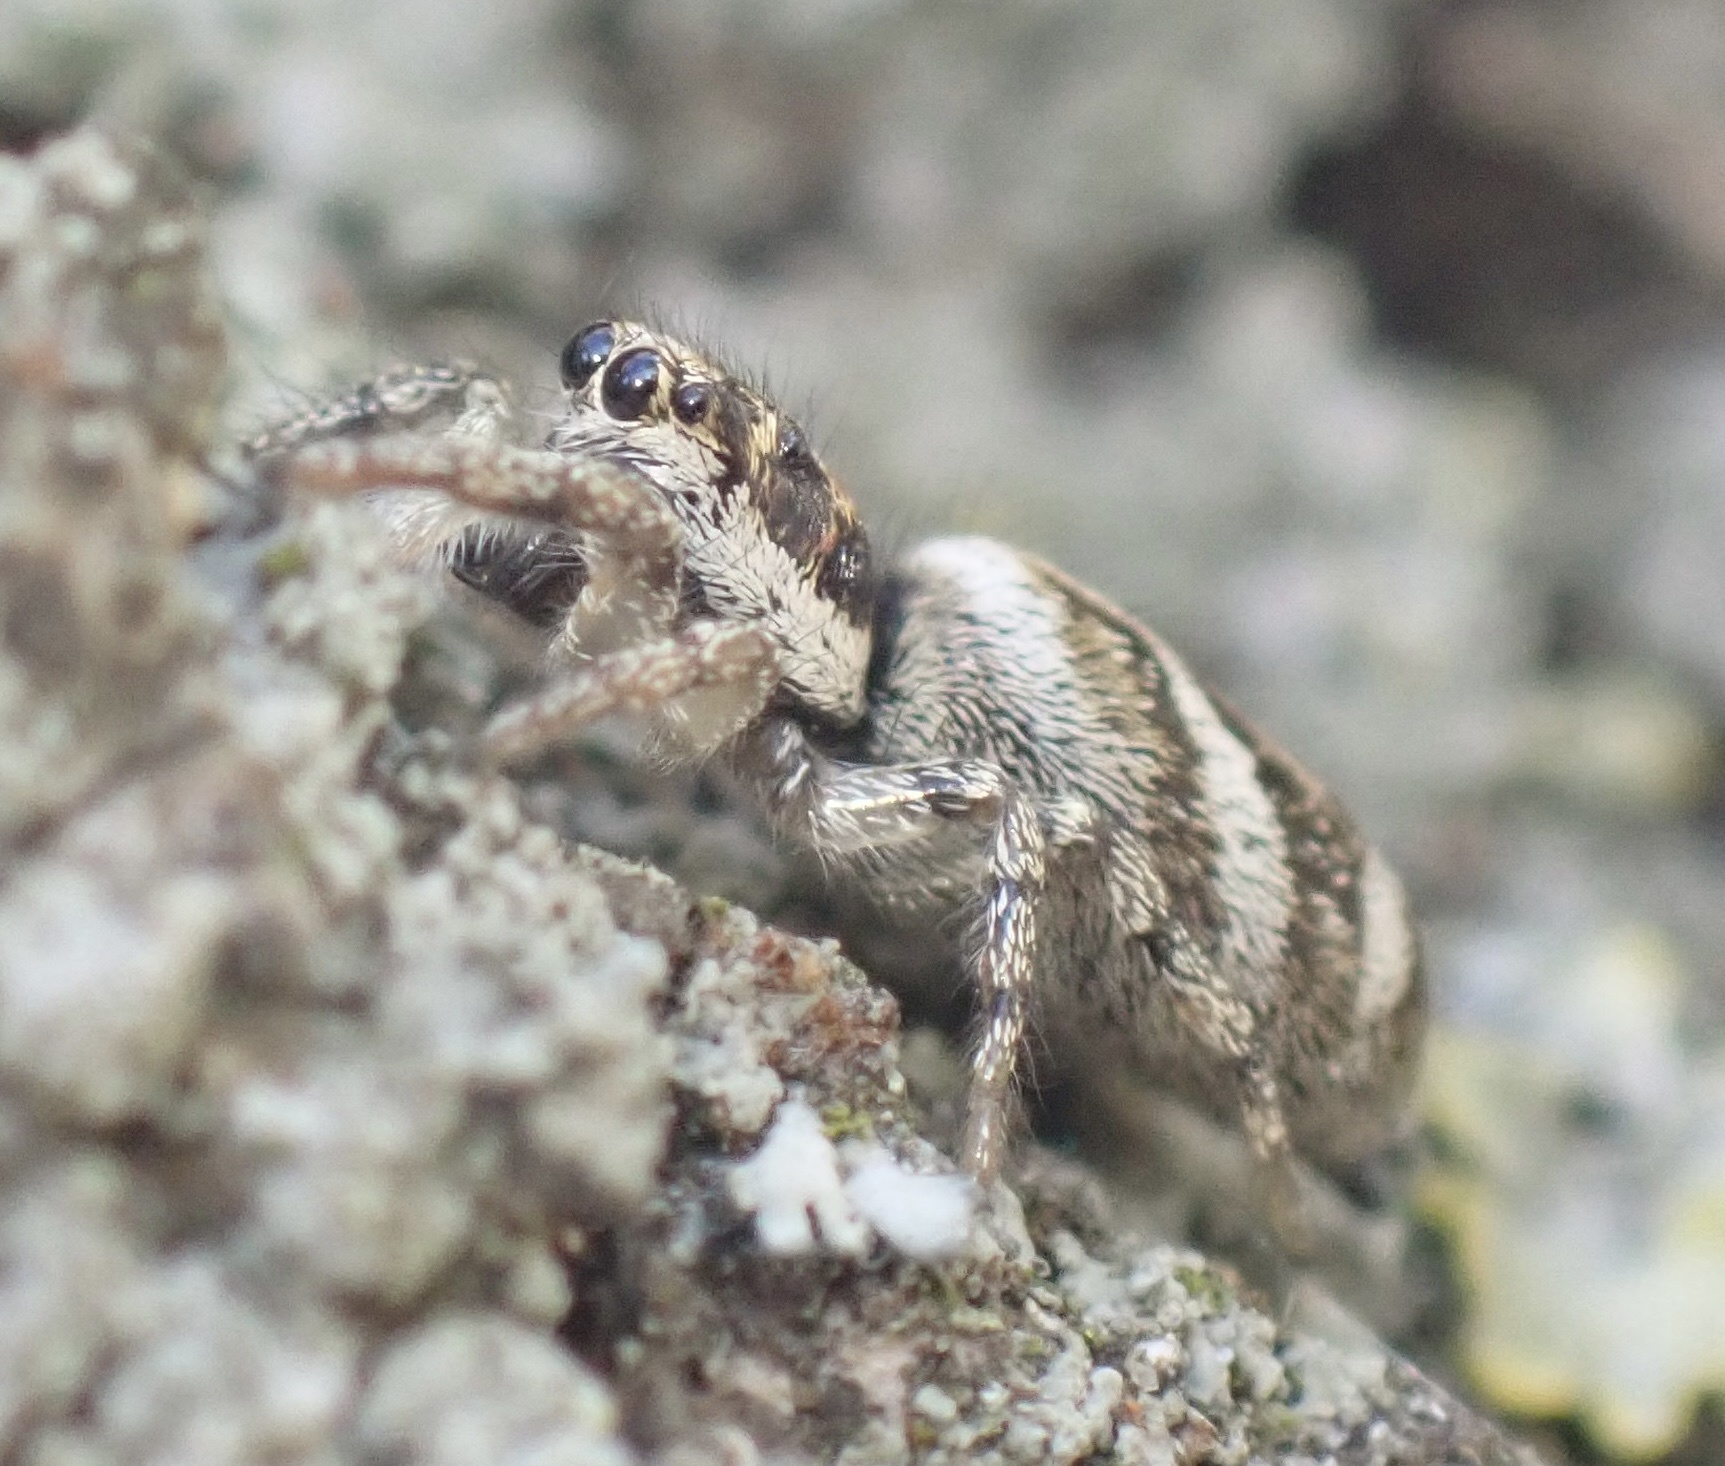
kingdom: Animalia
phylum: Arthropoda
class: Arachnida
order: Araneae
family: Salticidae
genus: Salticus
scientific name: Salticus scenicus
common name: Zebra jumper
